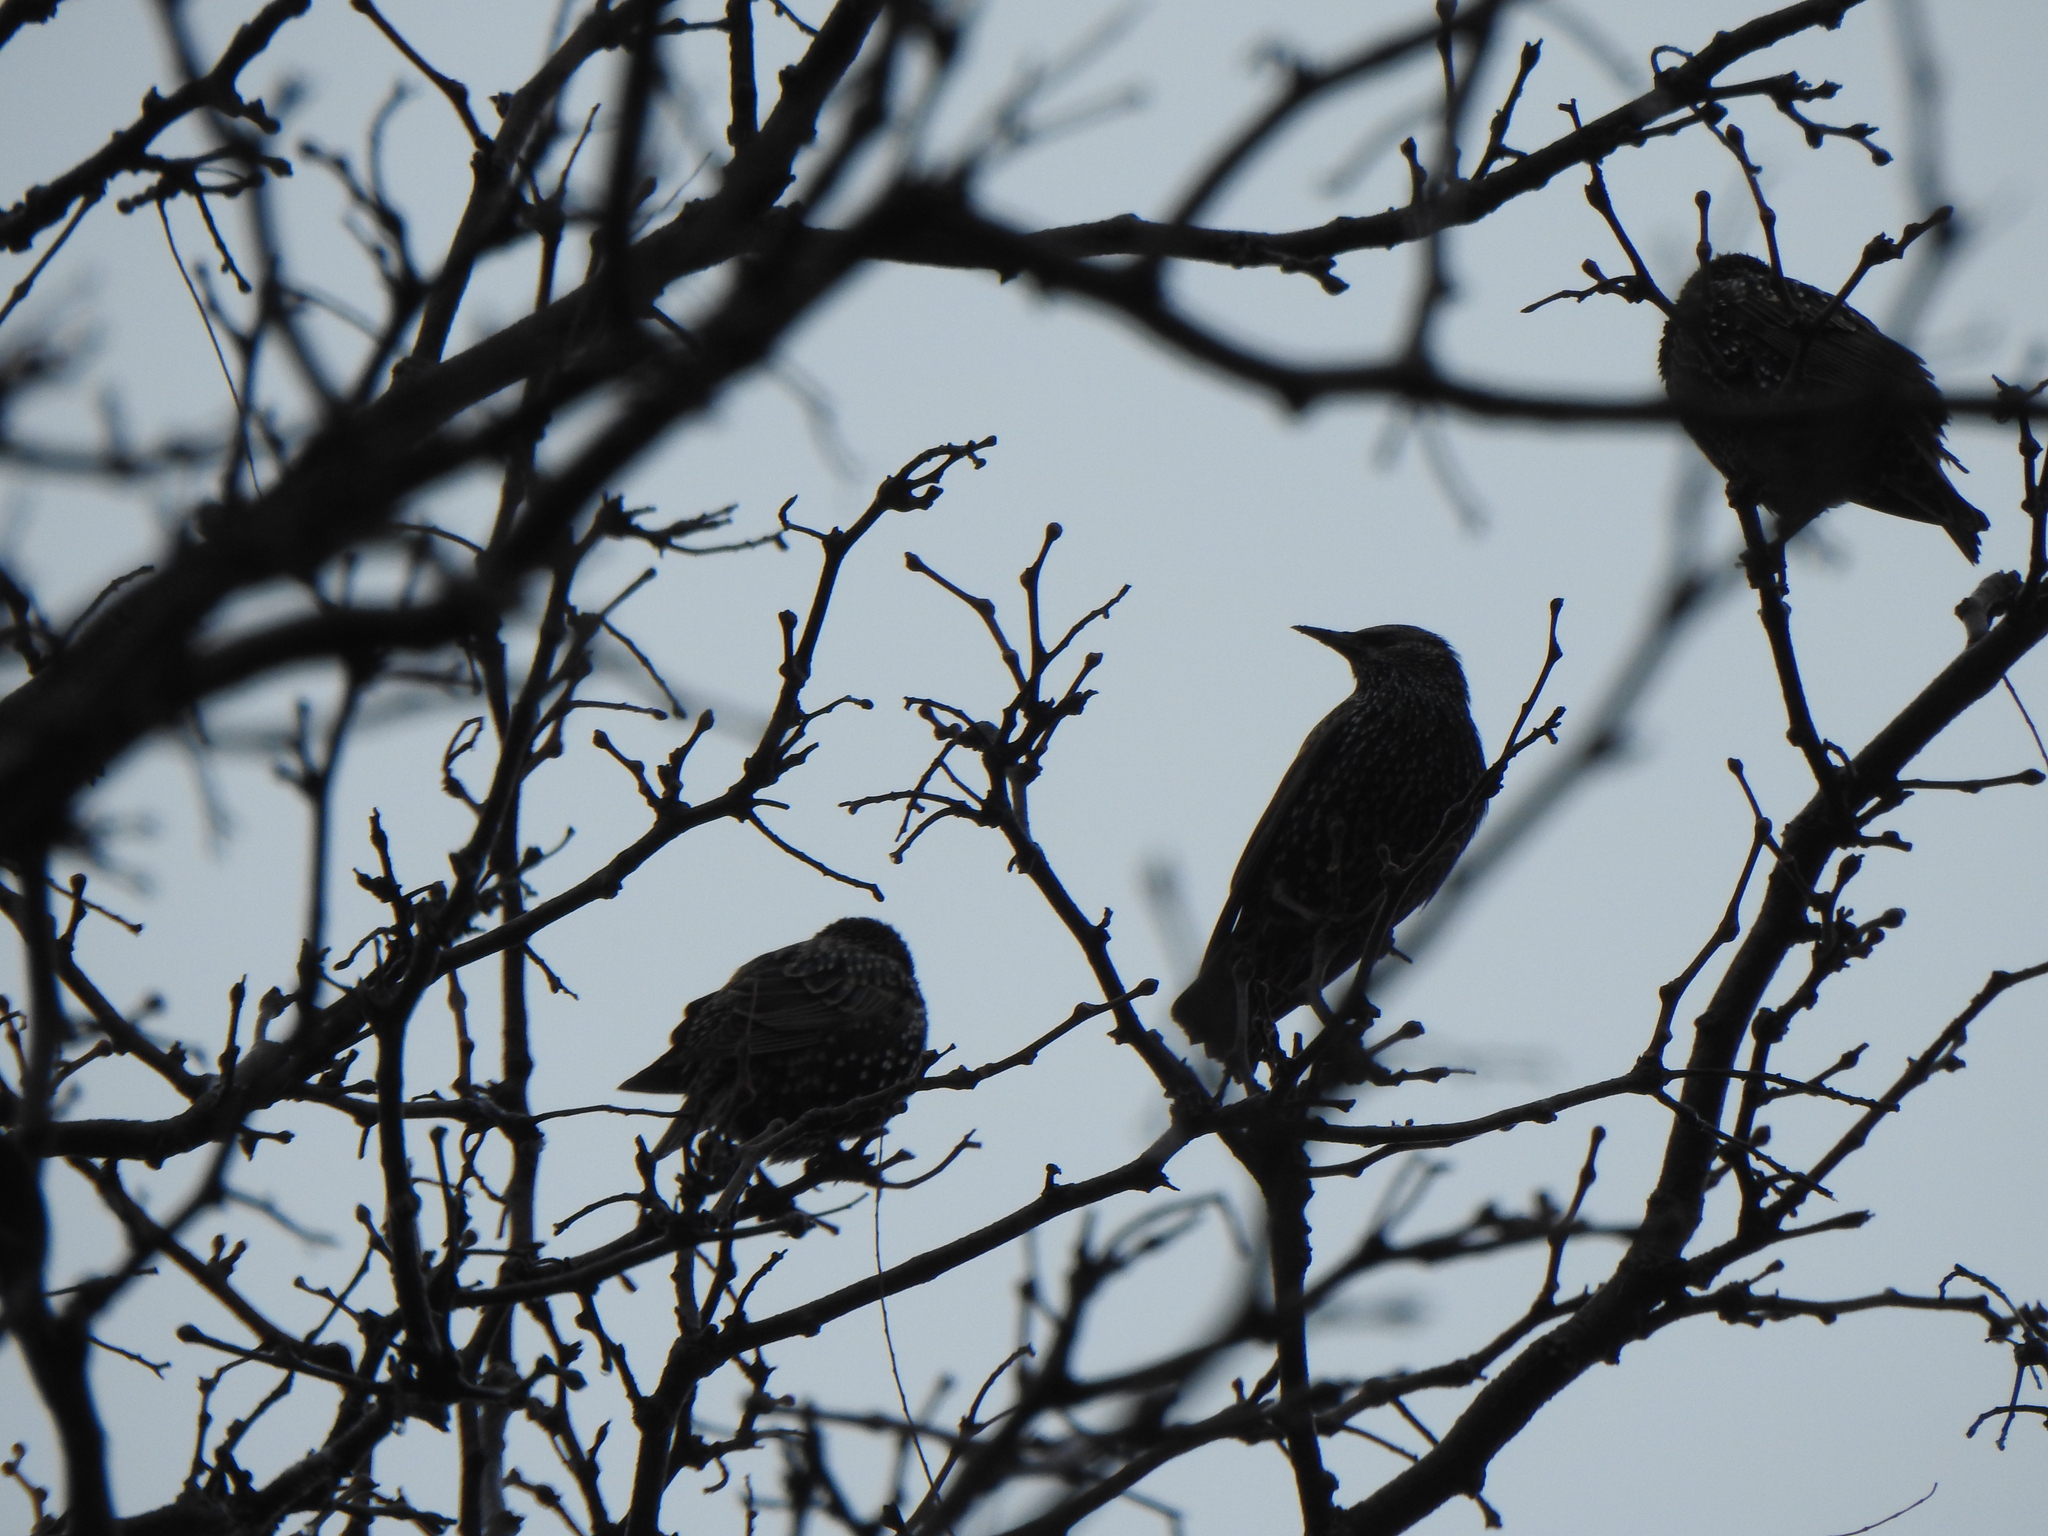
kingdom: Animalia
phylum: Chordata
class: Aves
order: Passeriformes
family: Sturnidae
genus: Sturnus
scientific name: Sturnus vulgaris
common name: Common starling
